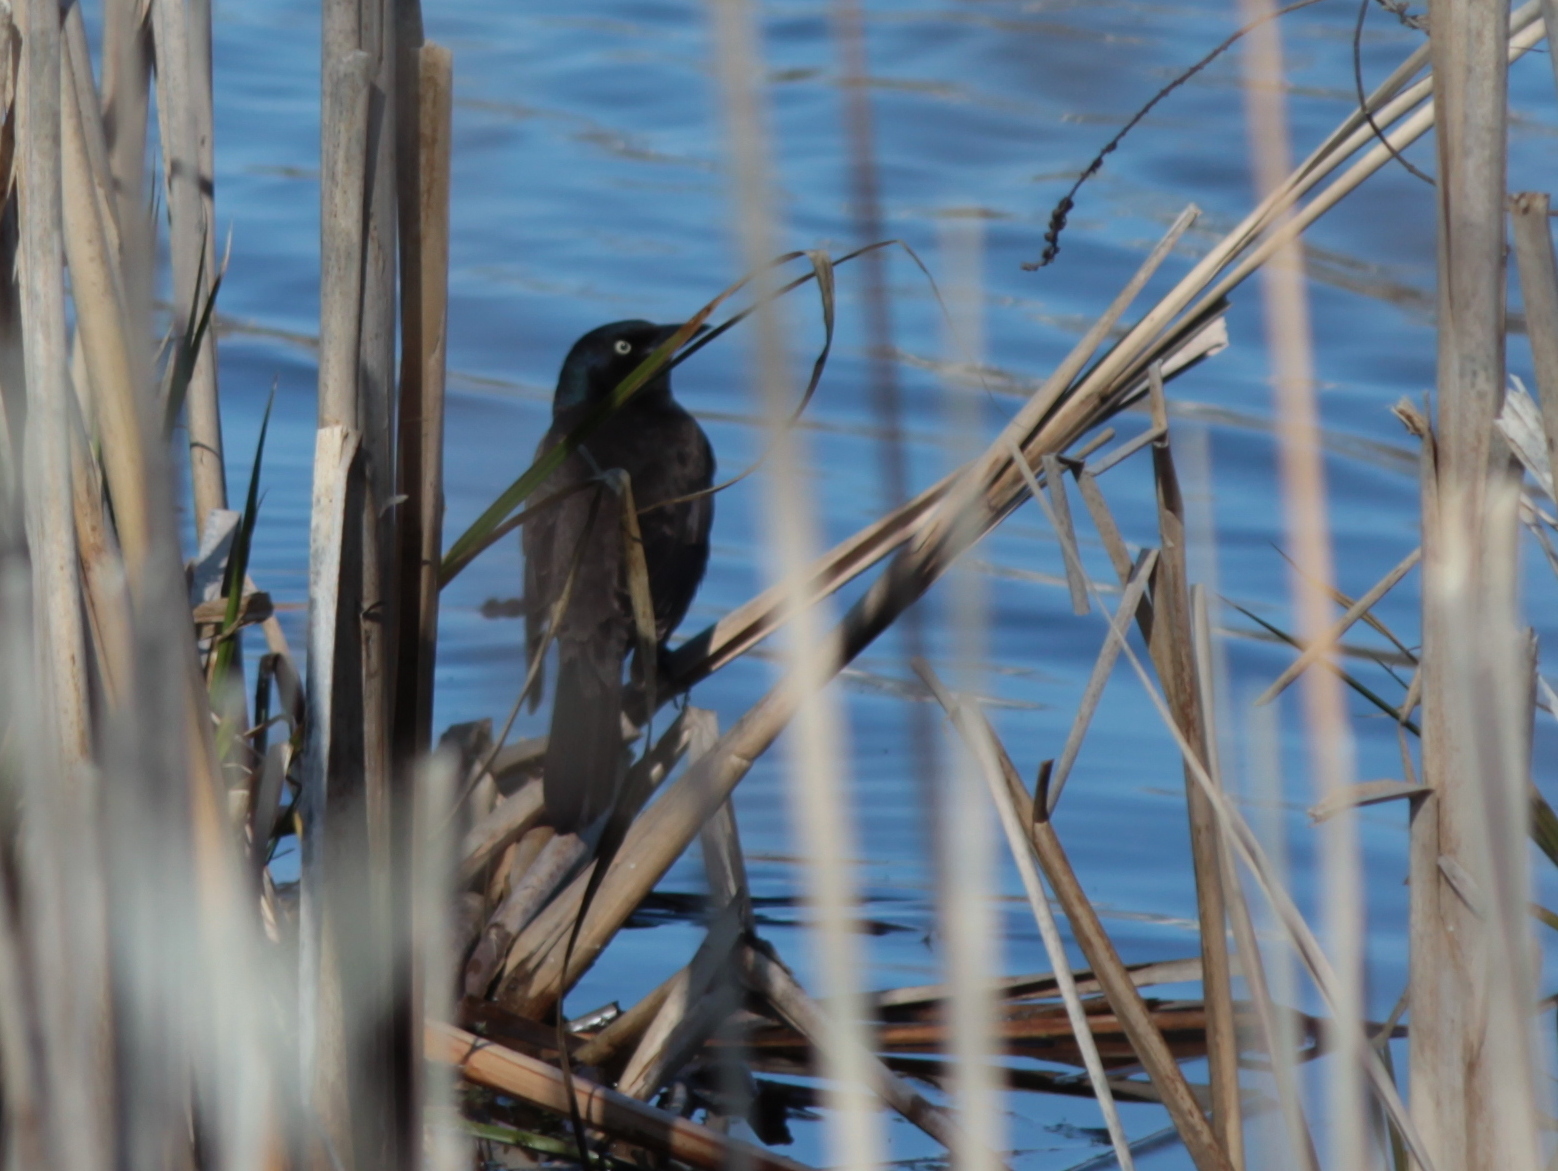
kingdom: Animalia
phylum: Chordata
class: Aves
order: Passeriformes
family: Icteridae
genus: Quiscalus
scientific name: Quiscalus quiscula
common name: Common grackle
